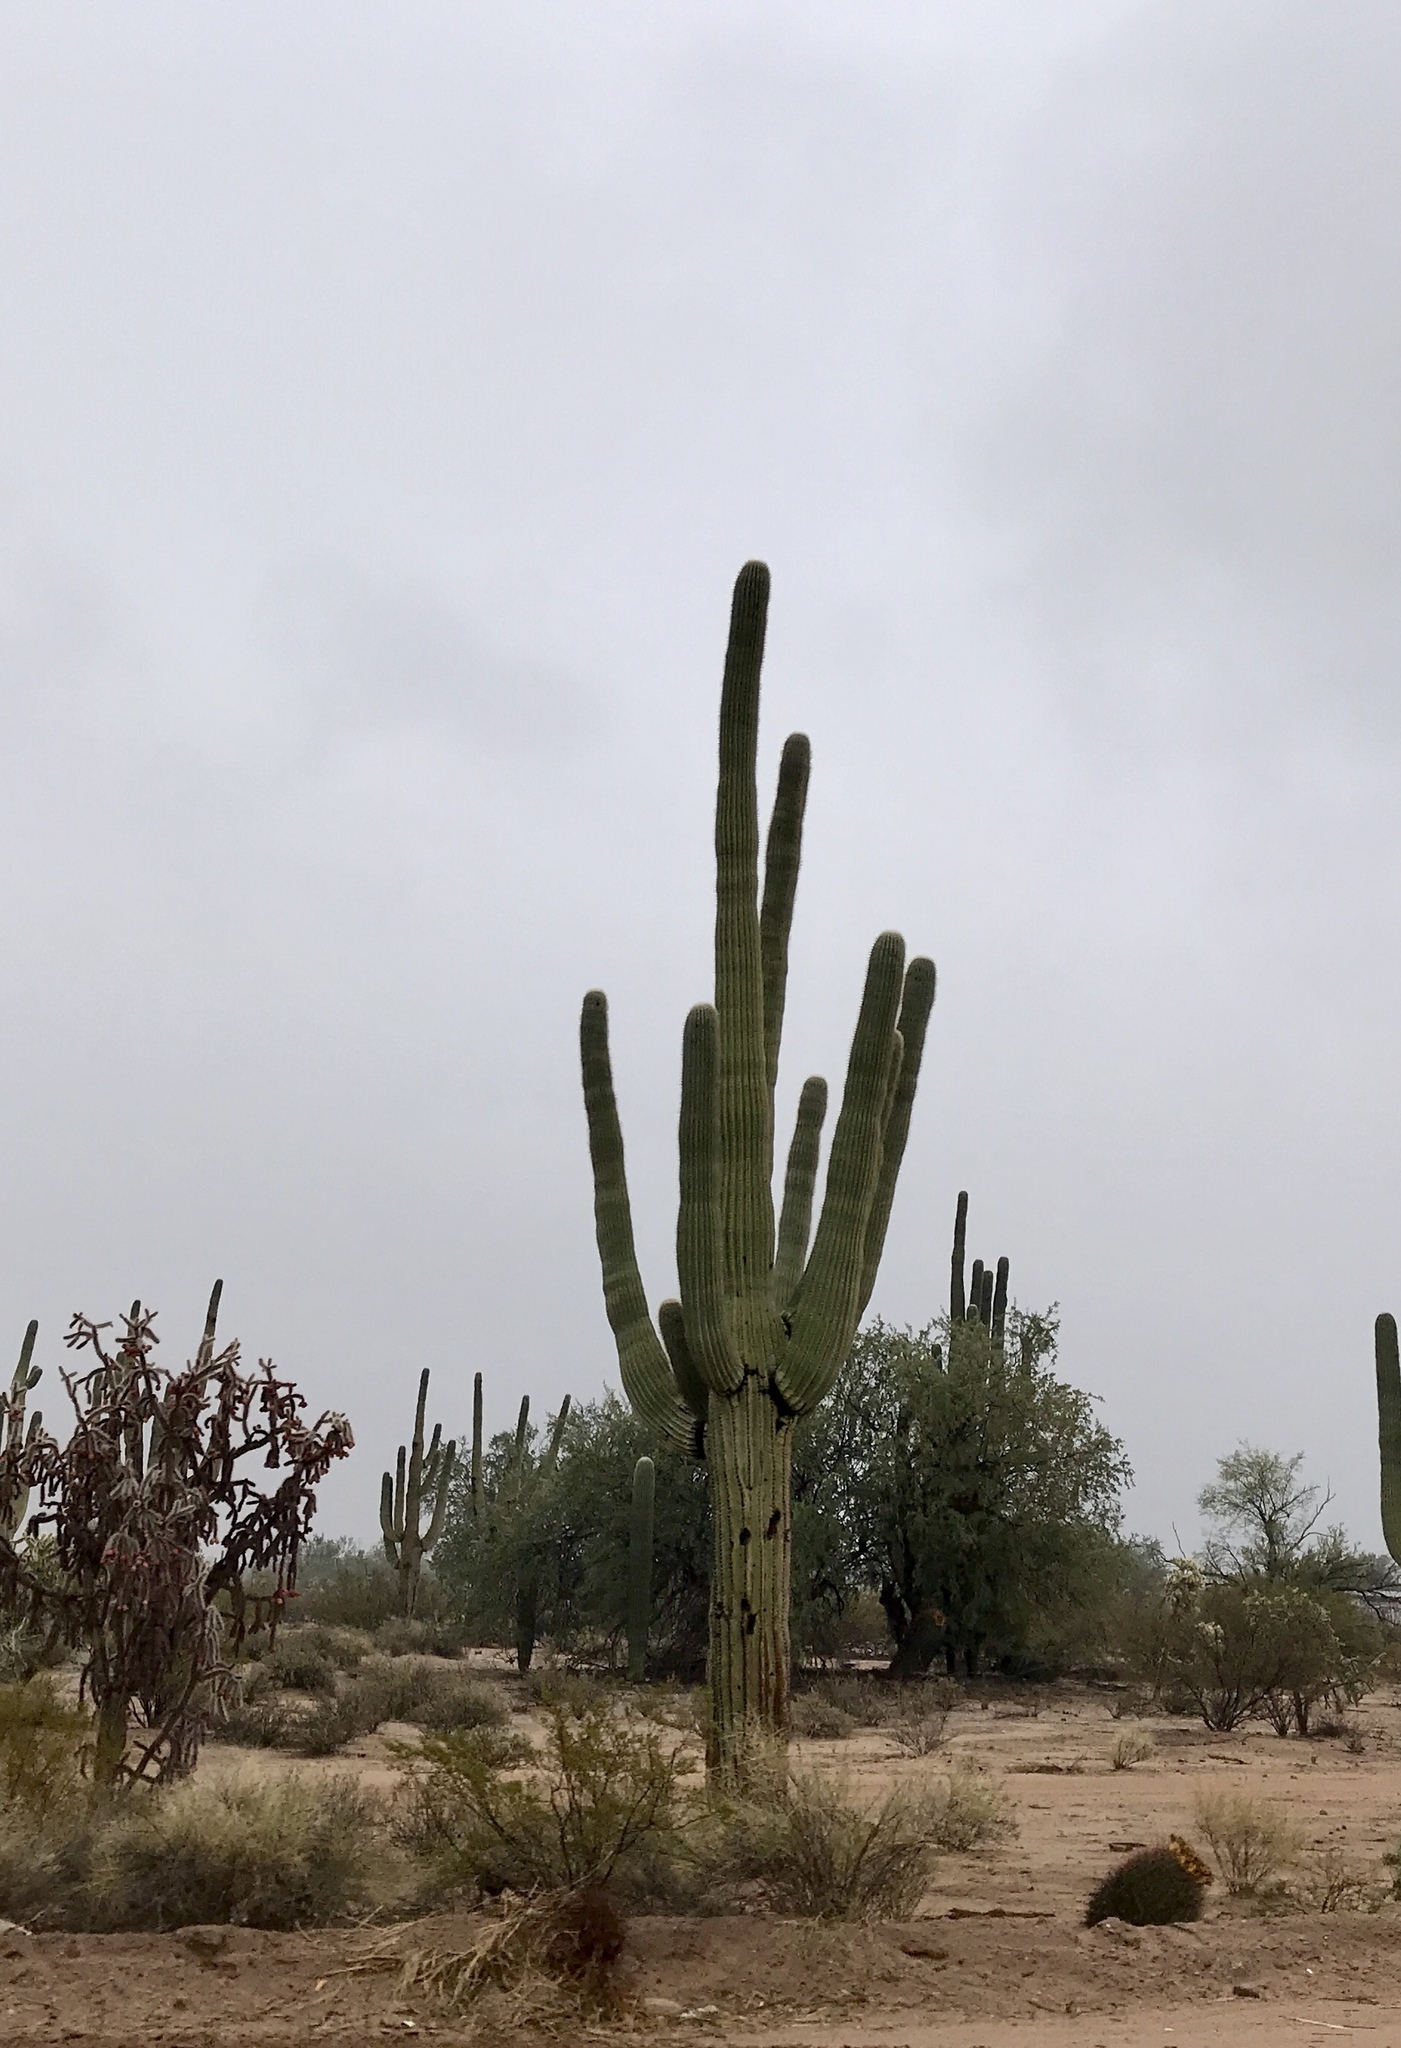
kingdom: Plantae
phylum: Tracheophyta
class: Magnoliopsida
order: Caryophyllales
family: Cactaceae
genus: Carnegiea
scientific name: Carnegiea gigantea
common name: Saguaro
